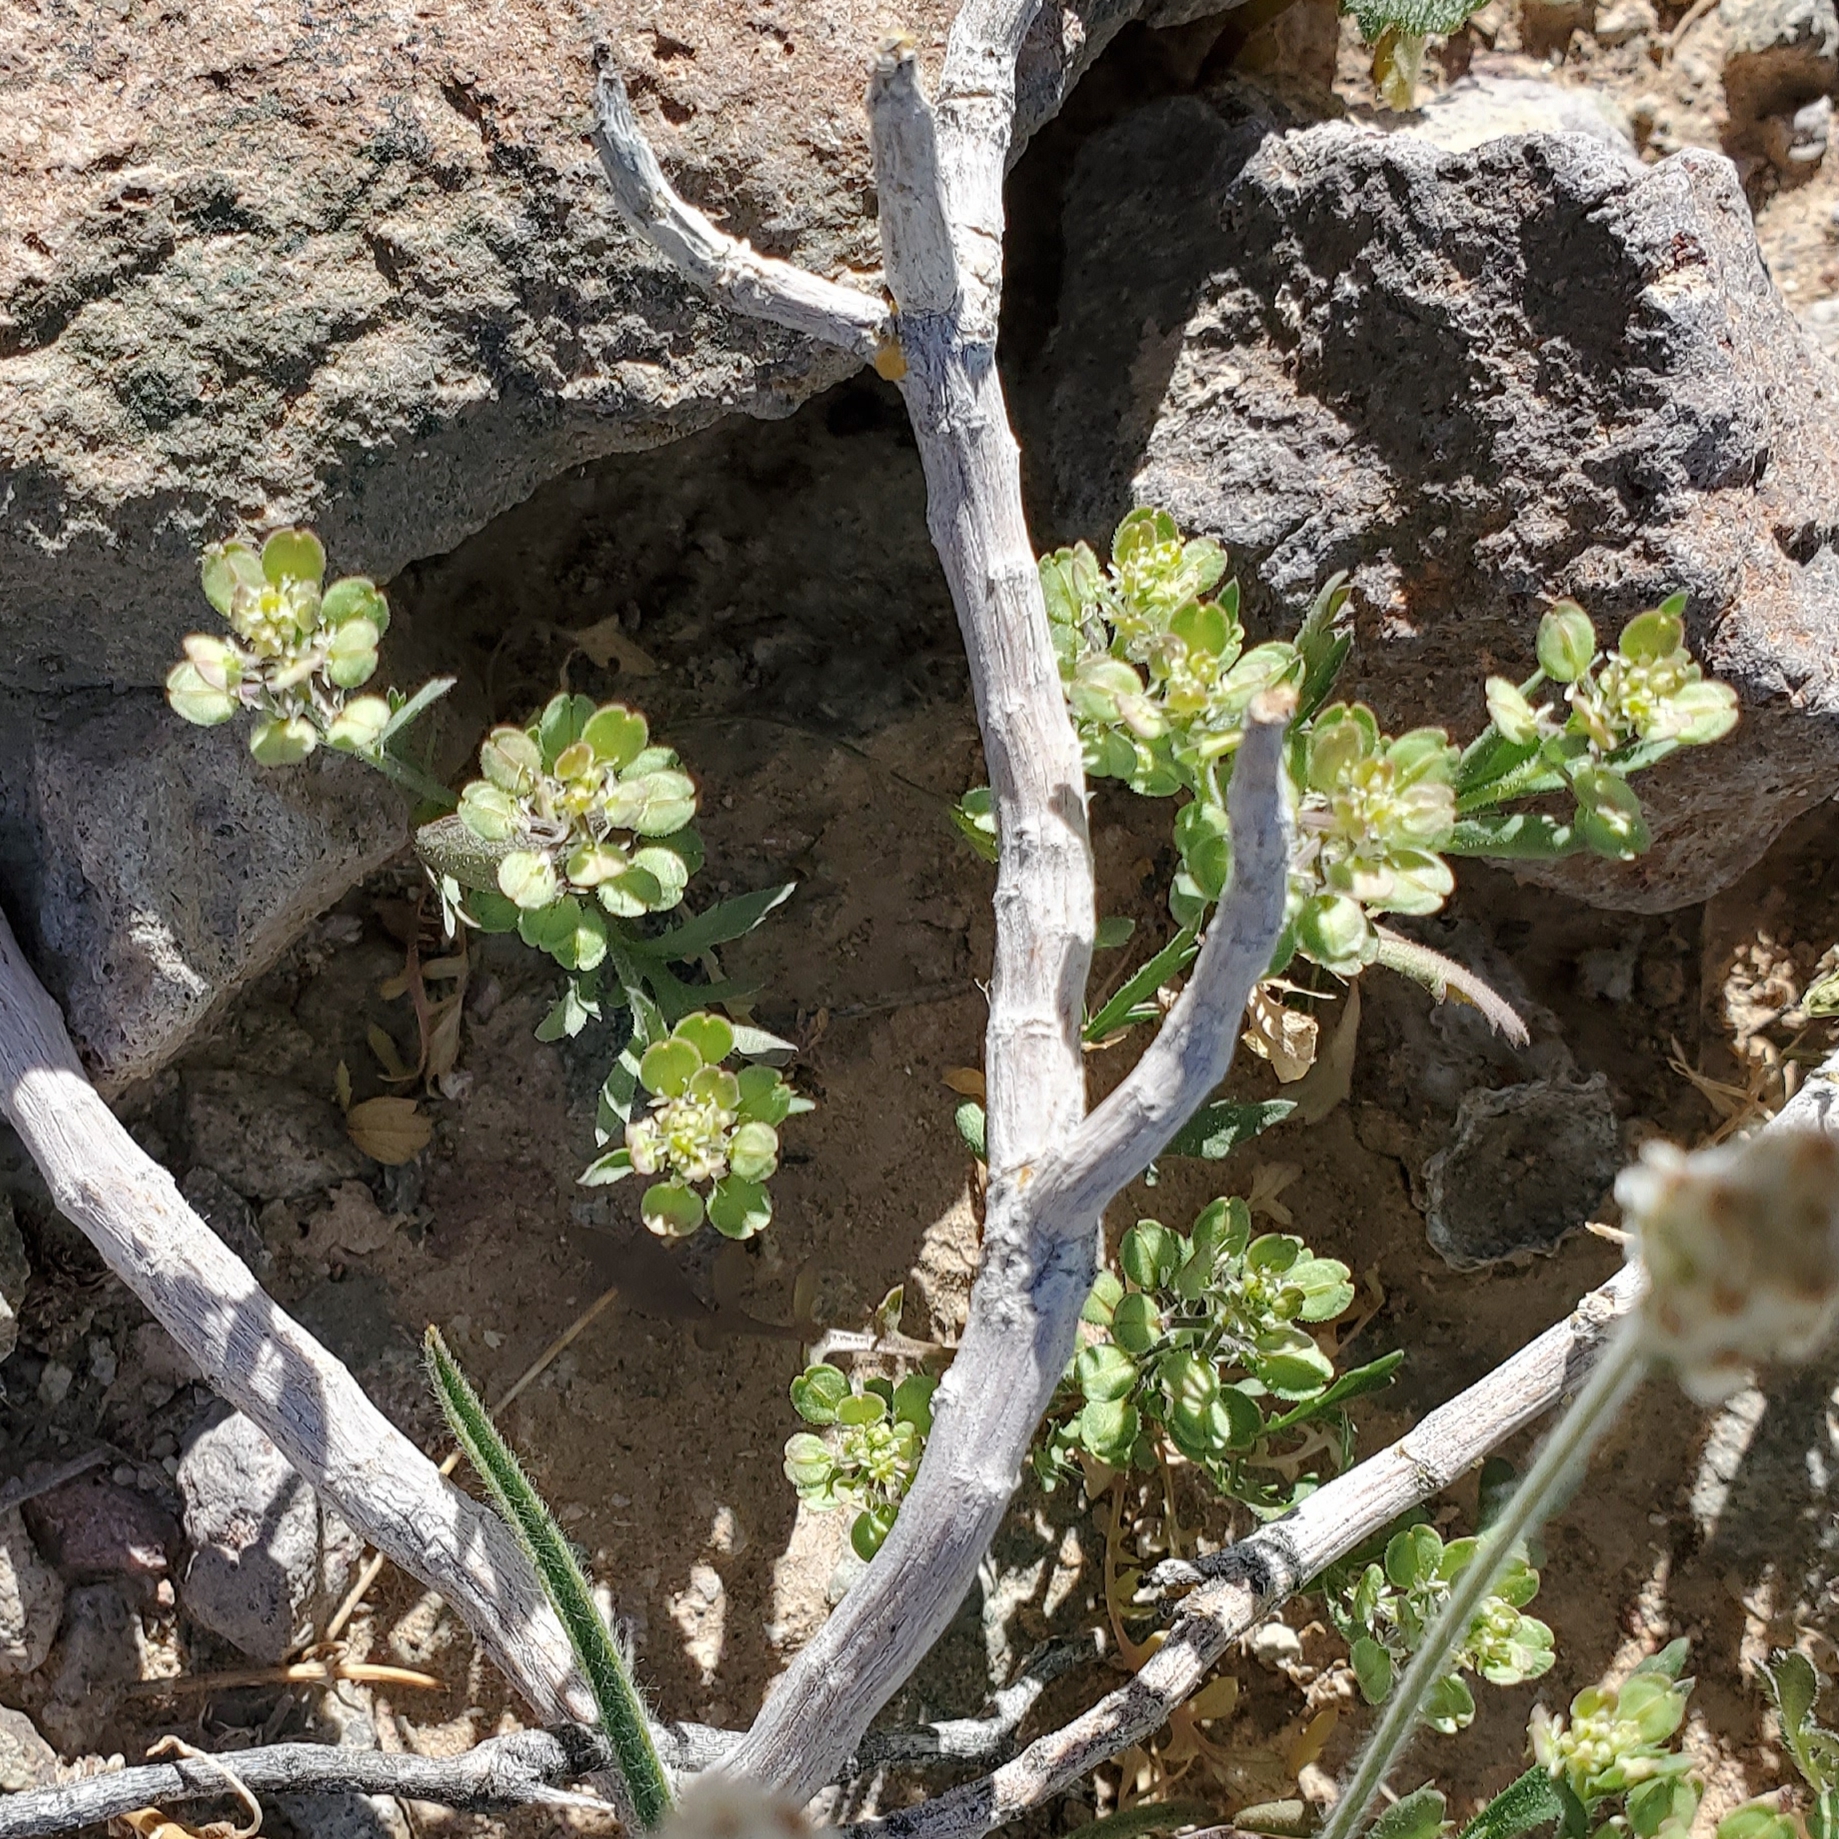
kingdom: Plantae
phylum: Tracheophyta
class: Magnoliopsida
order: Brassicales
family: Brassicaceae
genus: Lepidium
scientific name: Lepidium lasiocarpum
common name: Hairy-pod pepperwort
